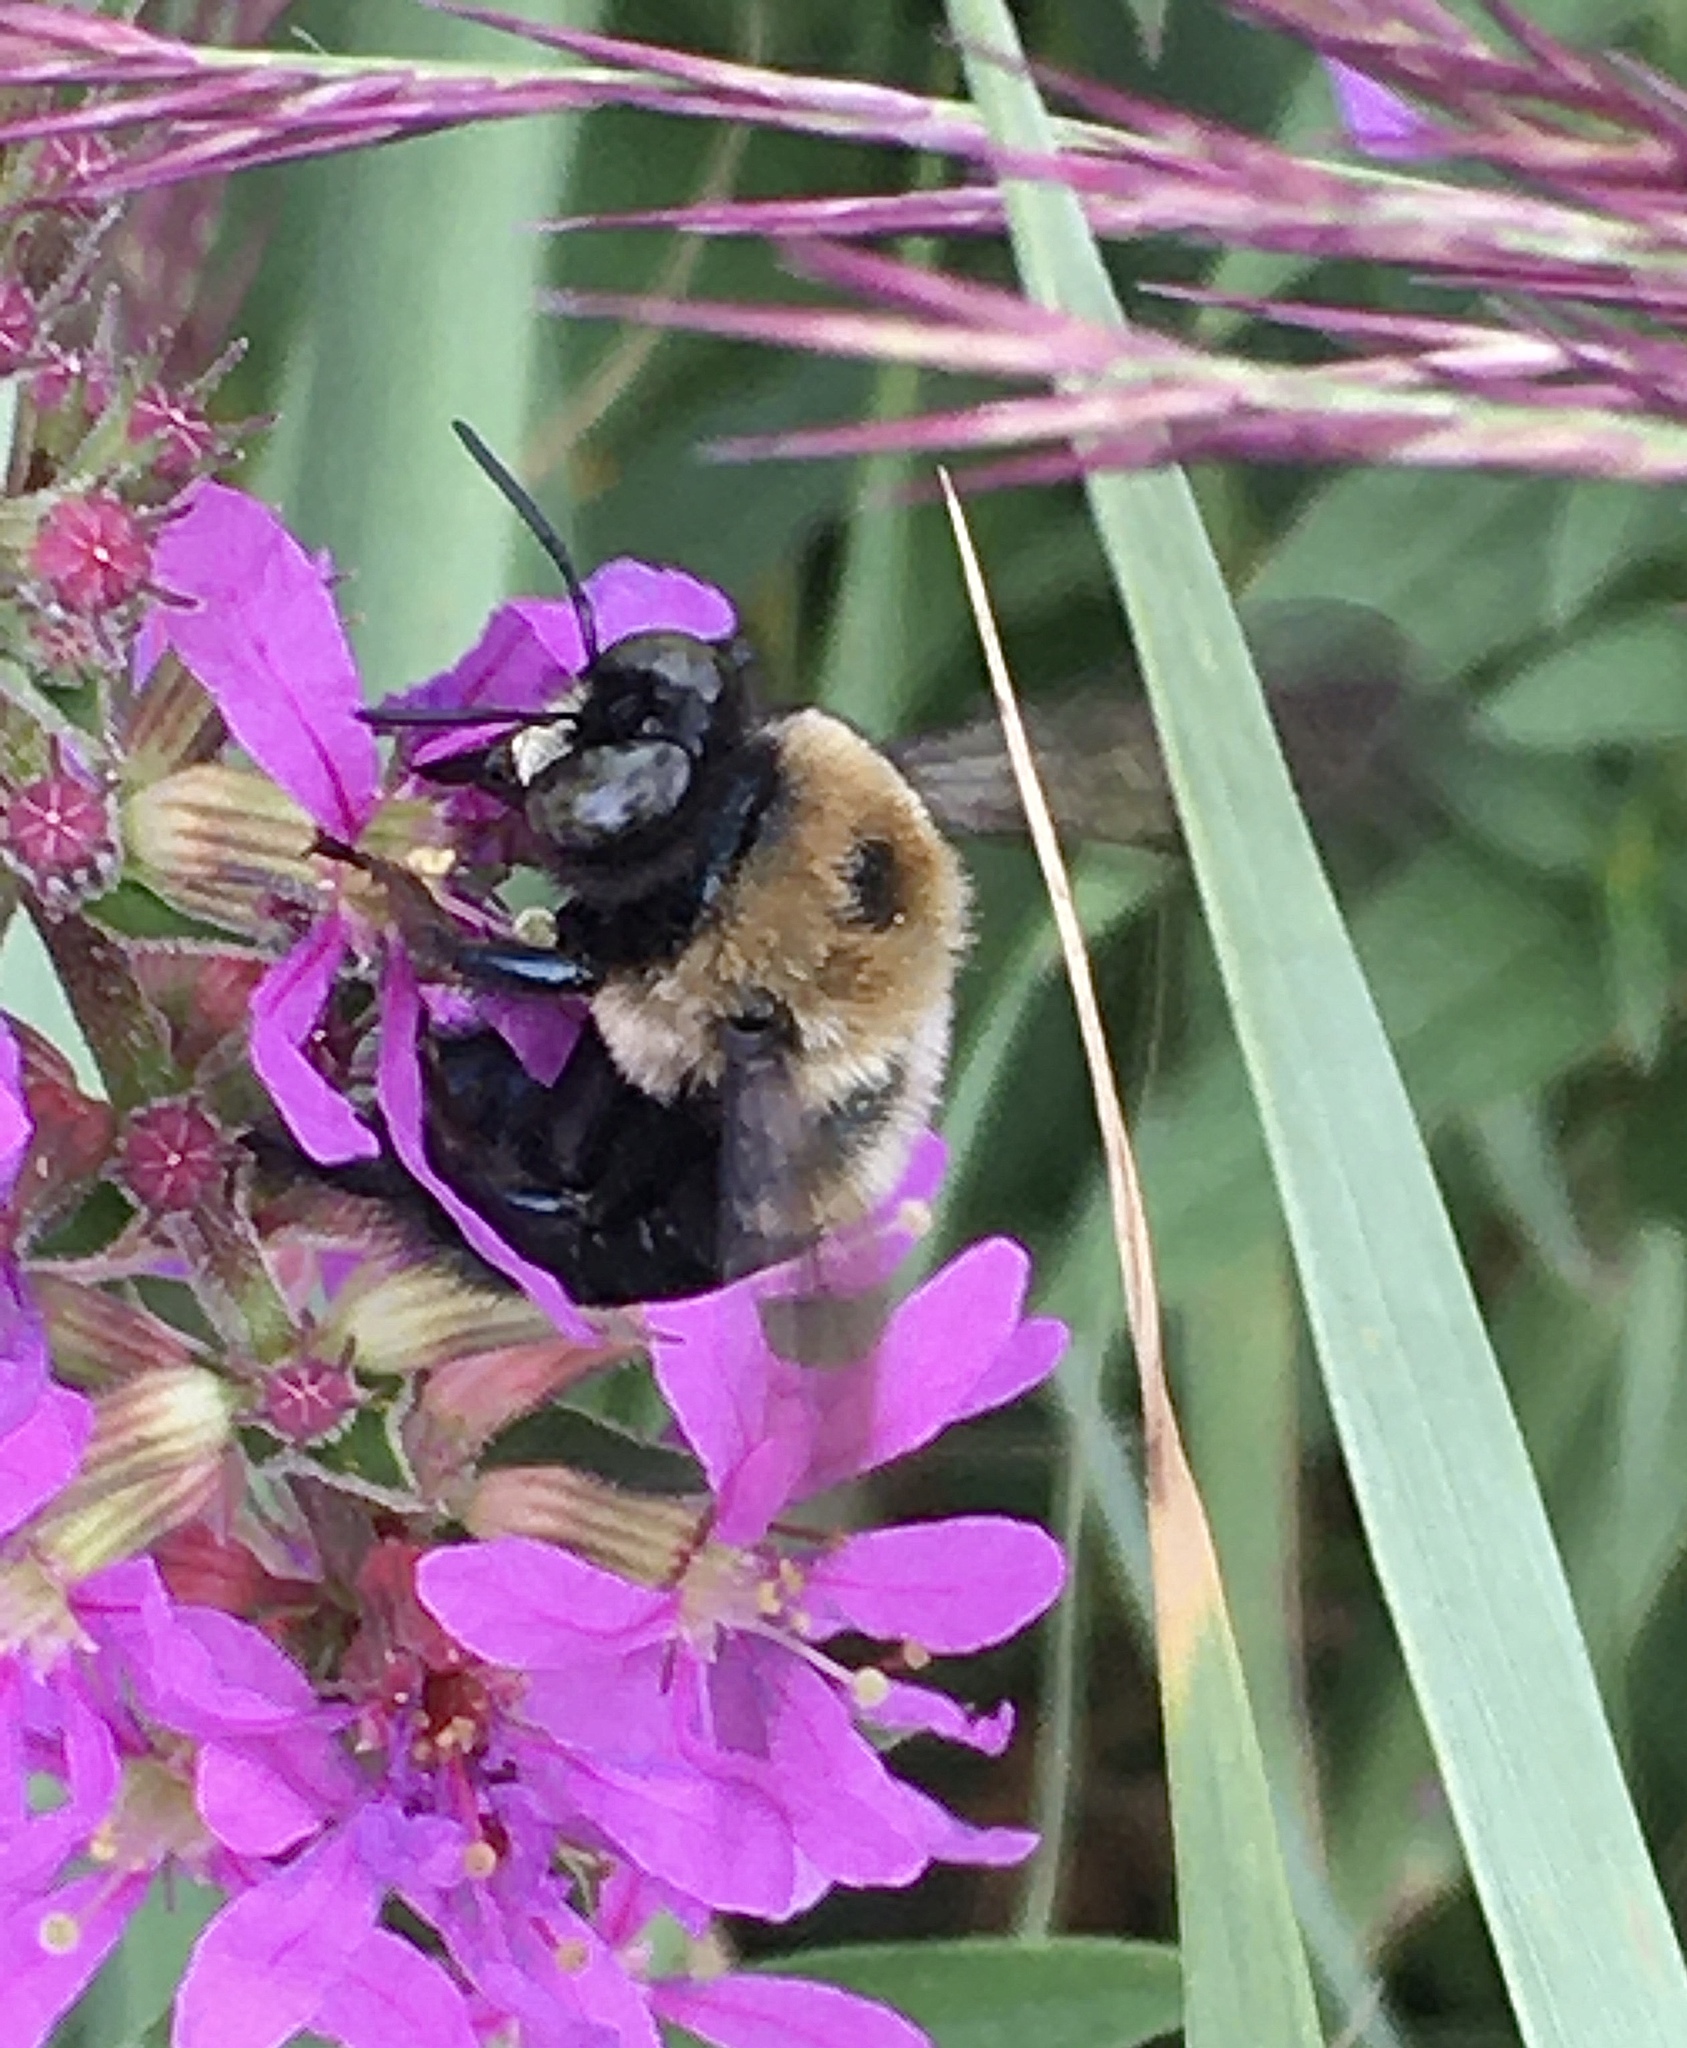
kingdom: Animalia
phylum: Arthropoda
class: Insecta
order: Hymenoptera
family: Apidae
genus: Xylocopa
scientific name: Xylocopa virginica
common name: Carpenter bee
